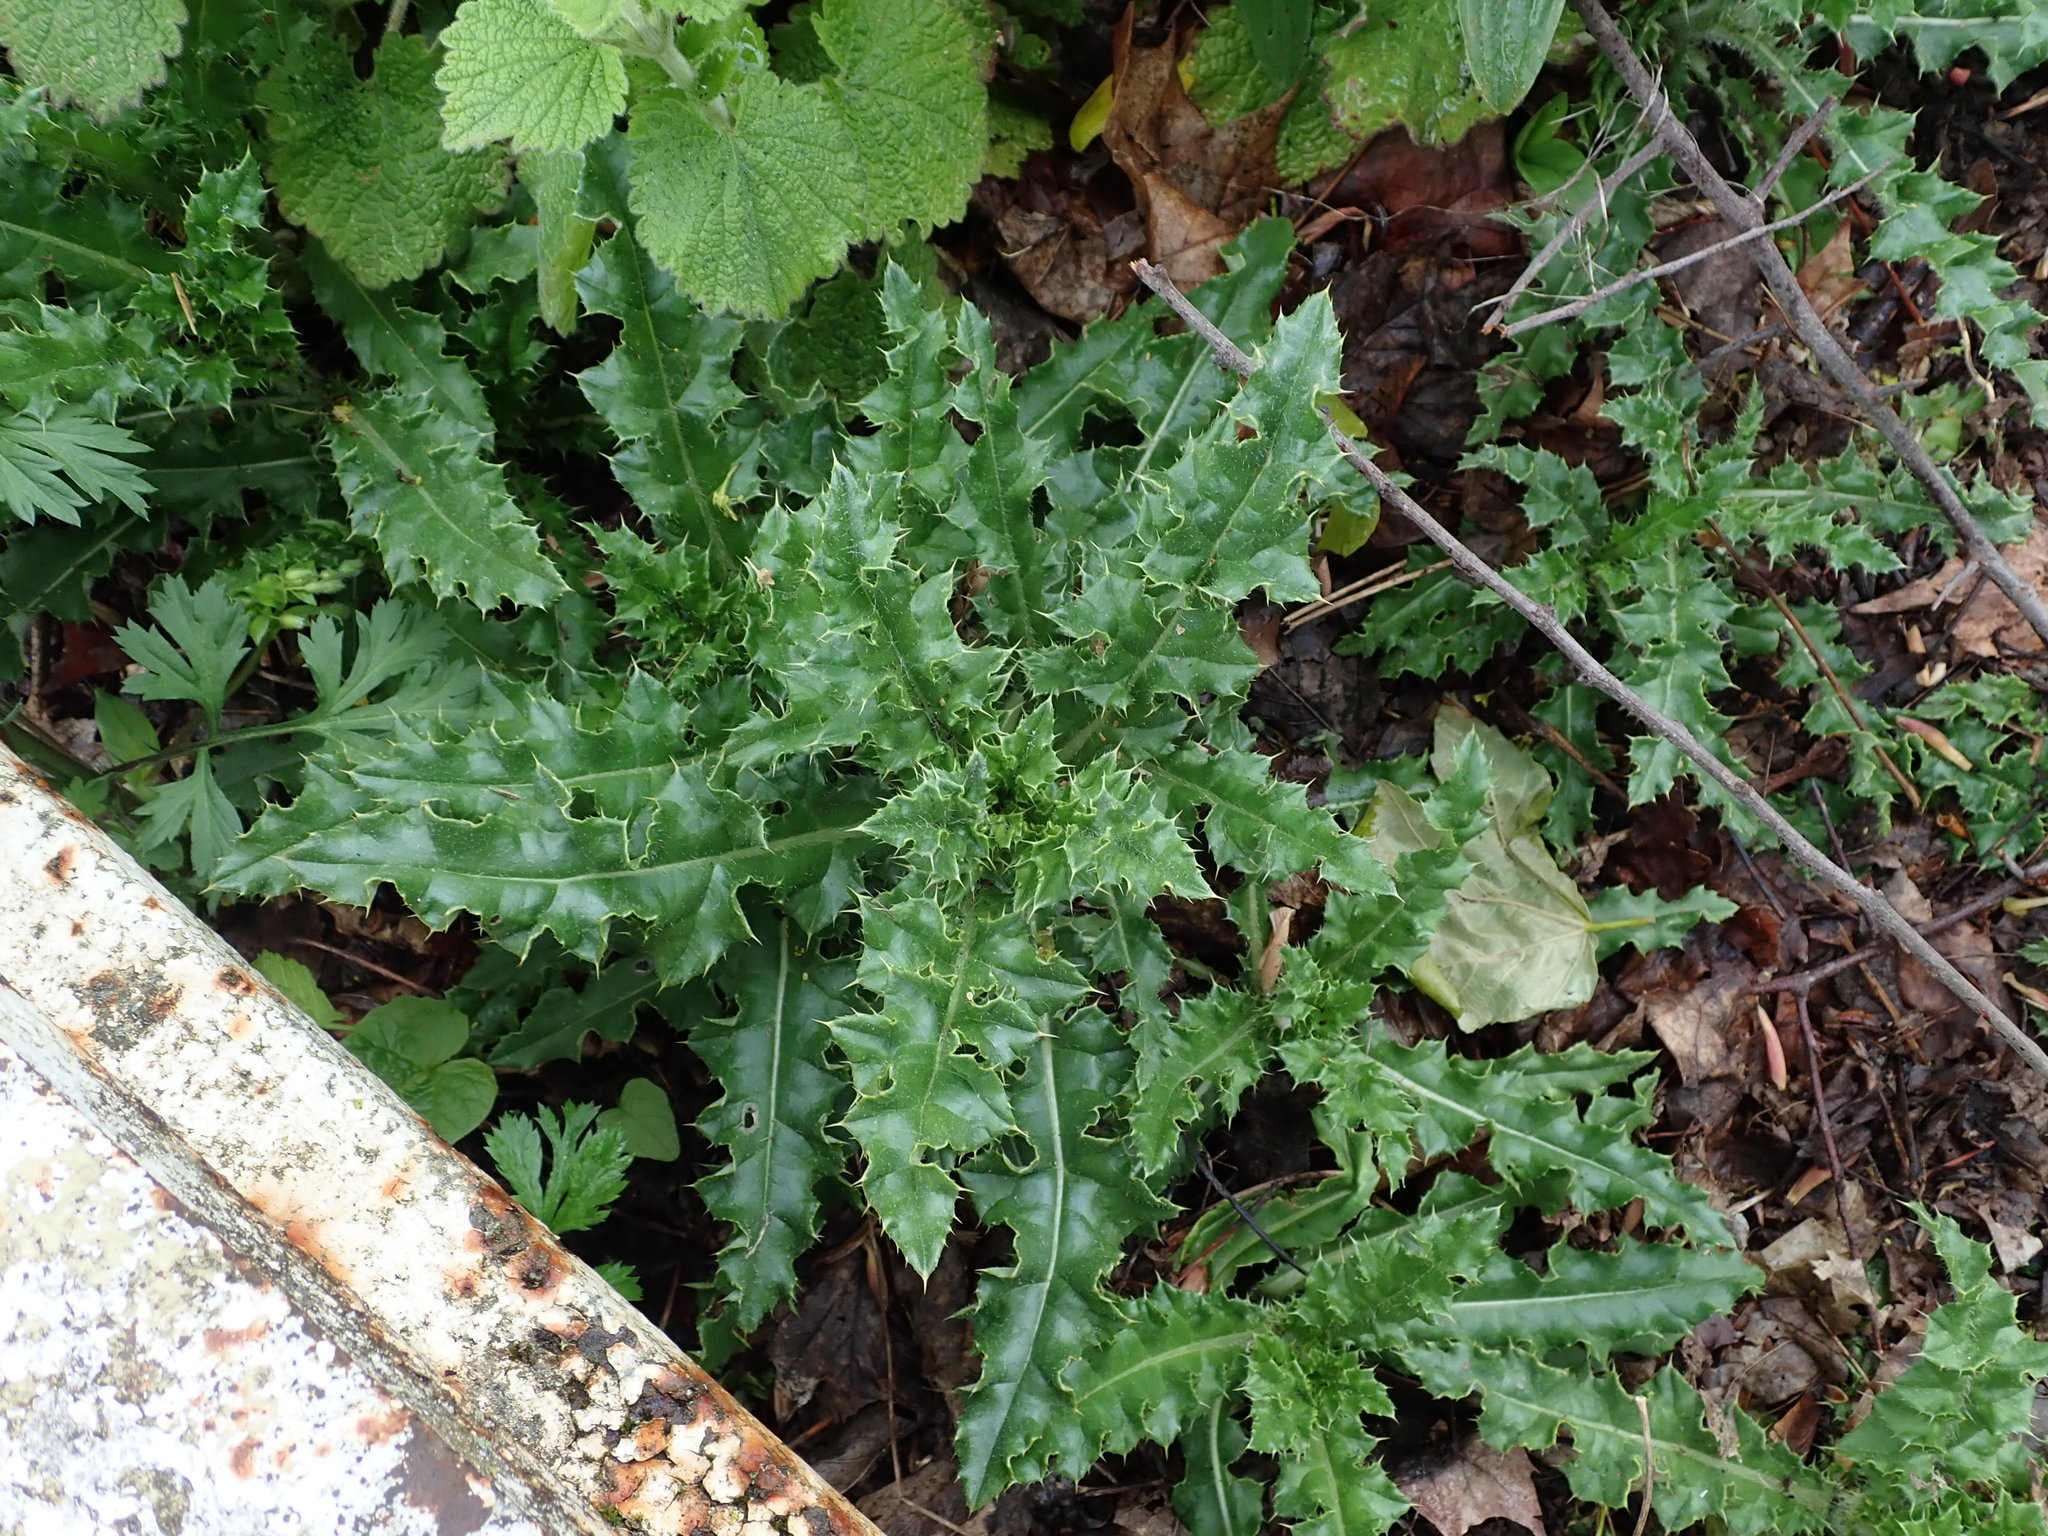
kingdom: Plantae
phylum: Tracheophyta
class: Magnoliopsida
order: Asterales
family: Asteraceae
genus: Cirsium
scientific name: Cirsium arvense
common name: Creeping thistle
